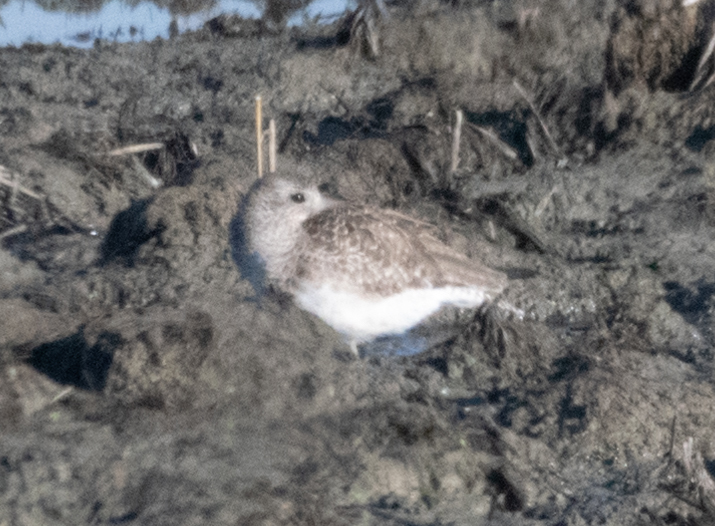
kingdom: Animalia
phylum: Chordata
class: Aves
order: Charadriiformes
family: Charadriidae
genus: Pluvialis
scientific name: Pluvialis squatarola
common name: Grey plover
